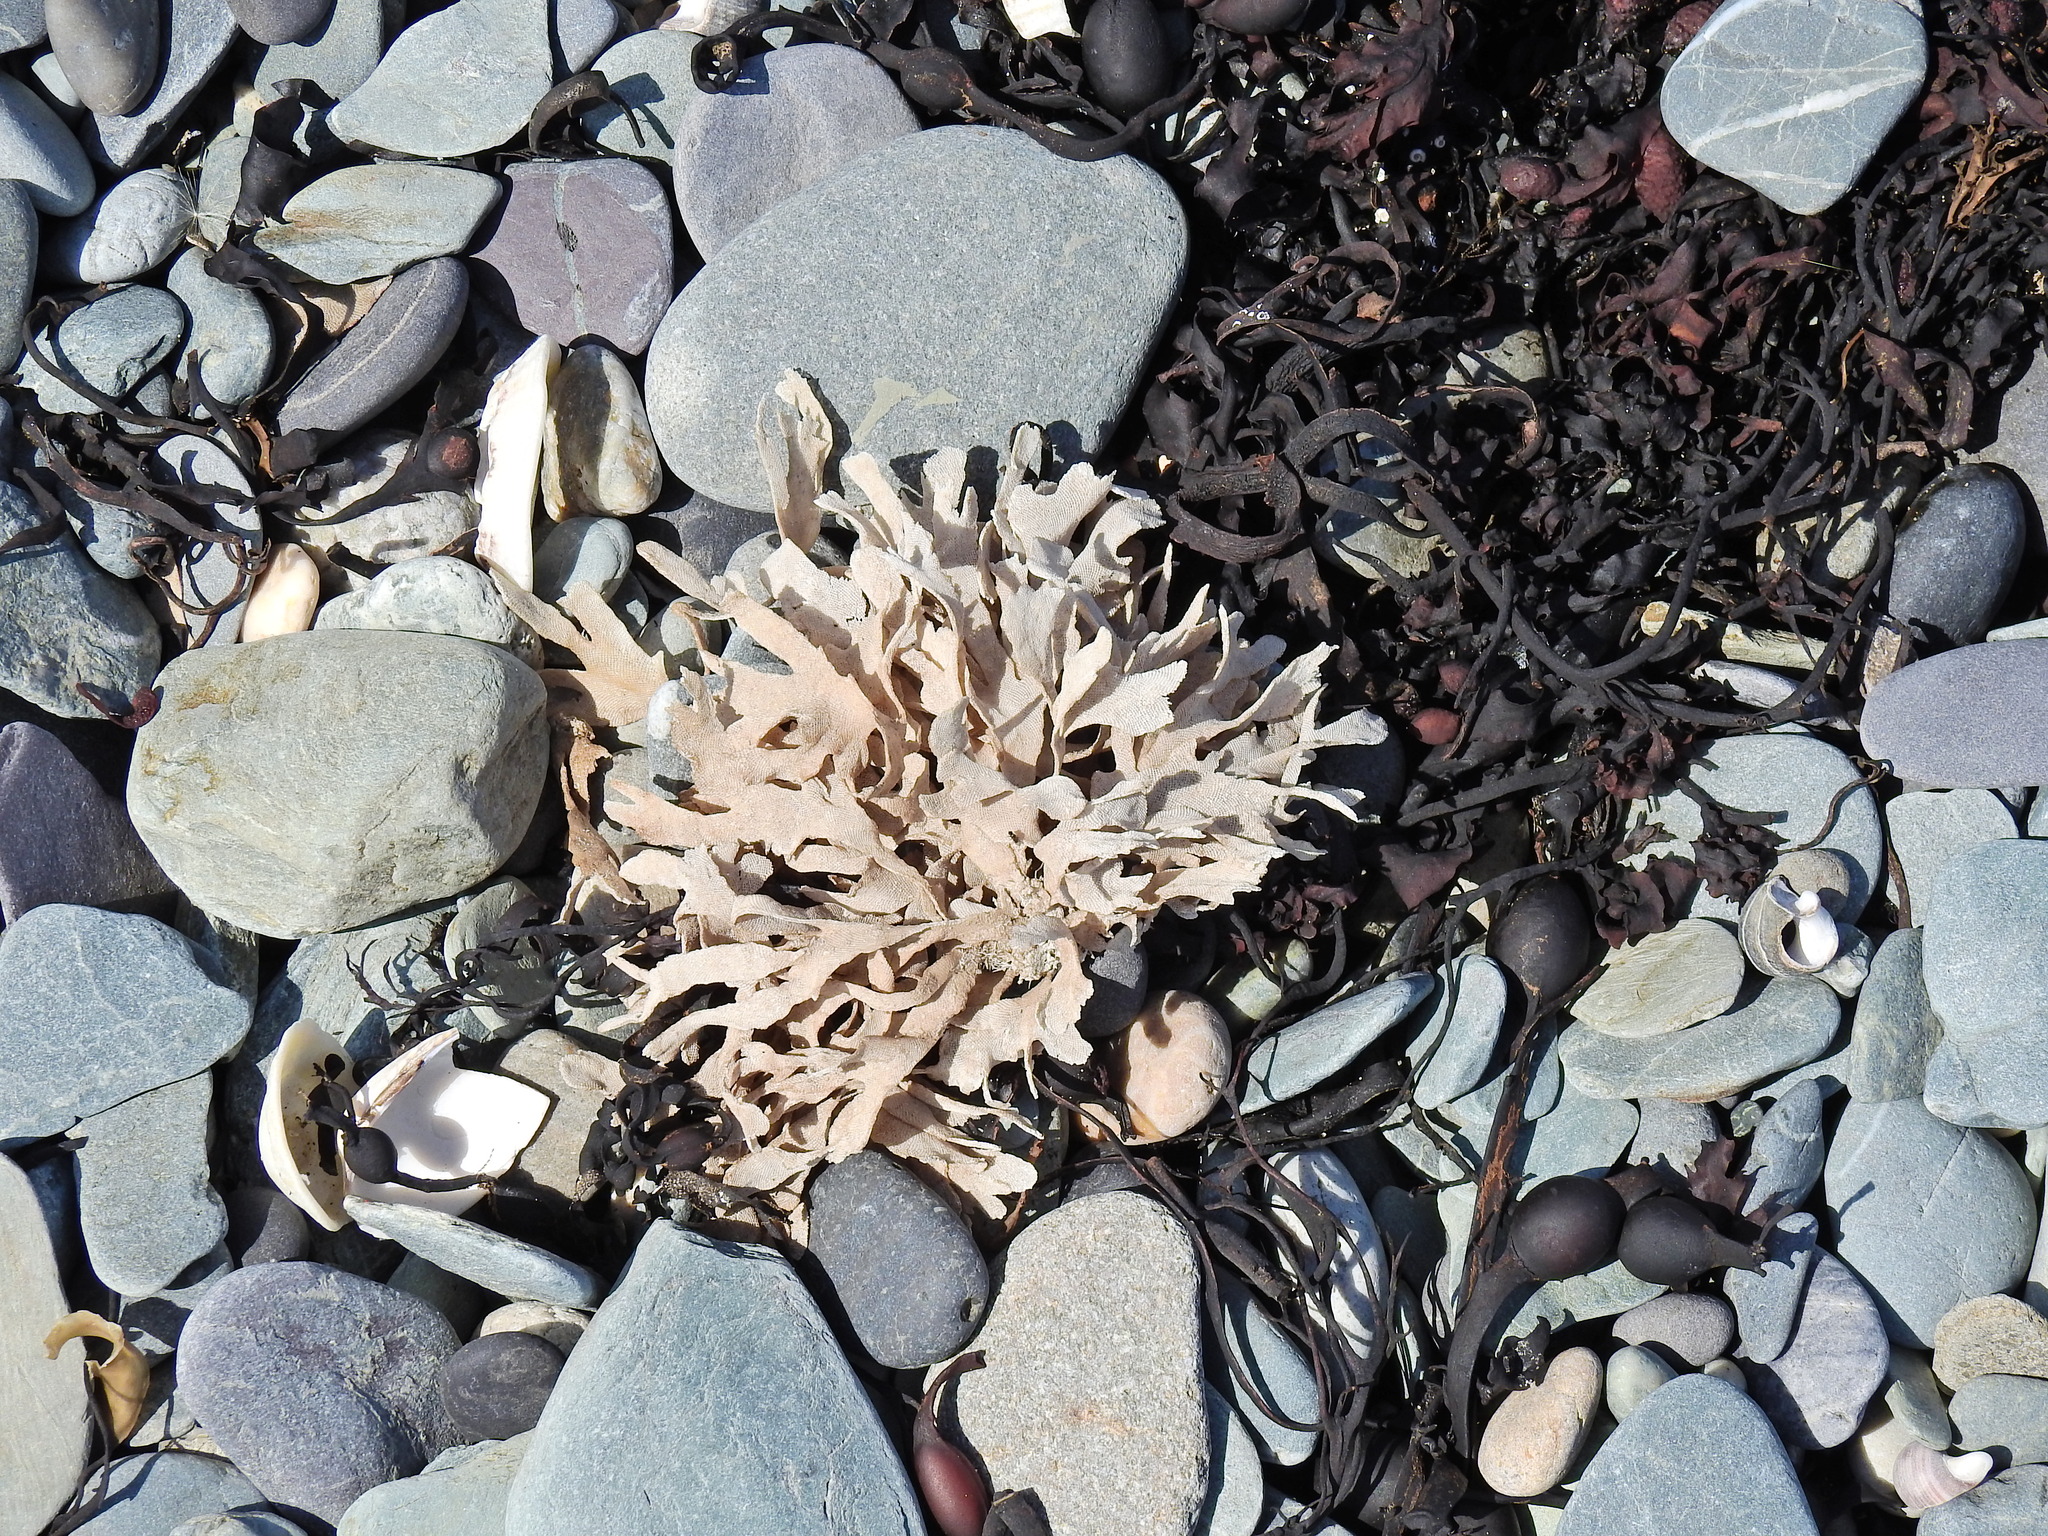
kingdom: Animalia
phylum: Bryozoa
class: Gymnolaemata
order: Cheilostomatida
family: Flustridae
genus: Flustra
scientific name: Flustra foliacea
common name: Hornwrack
